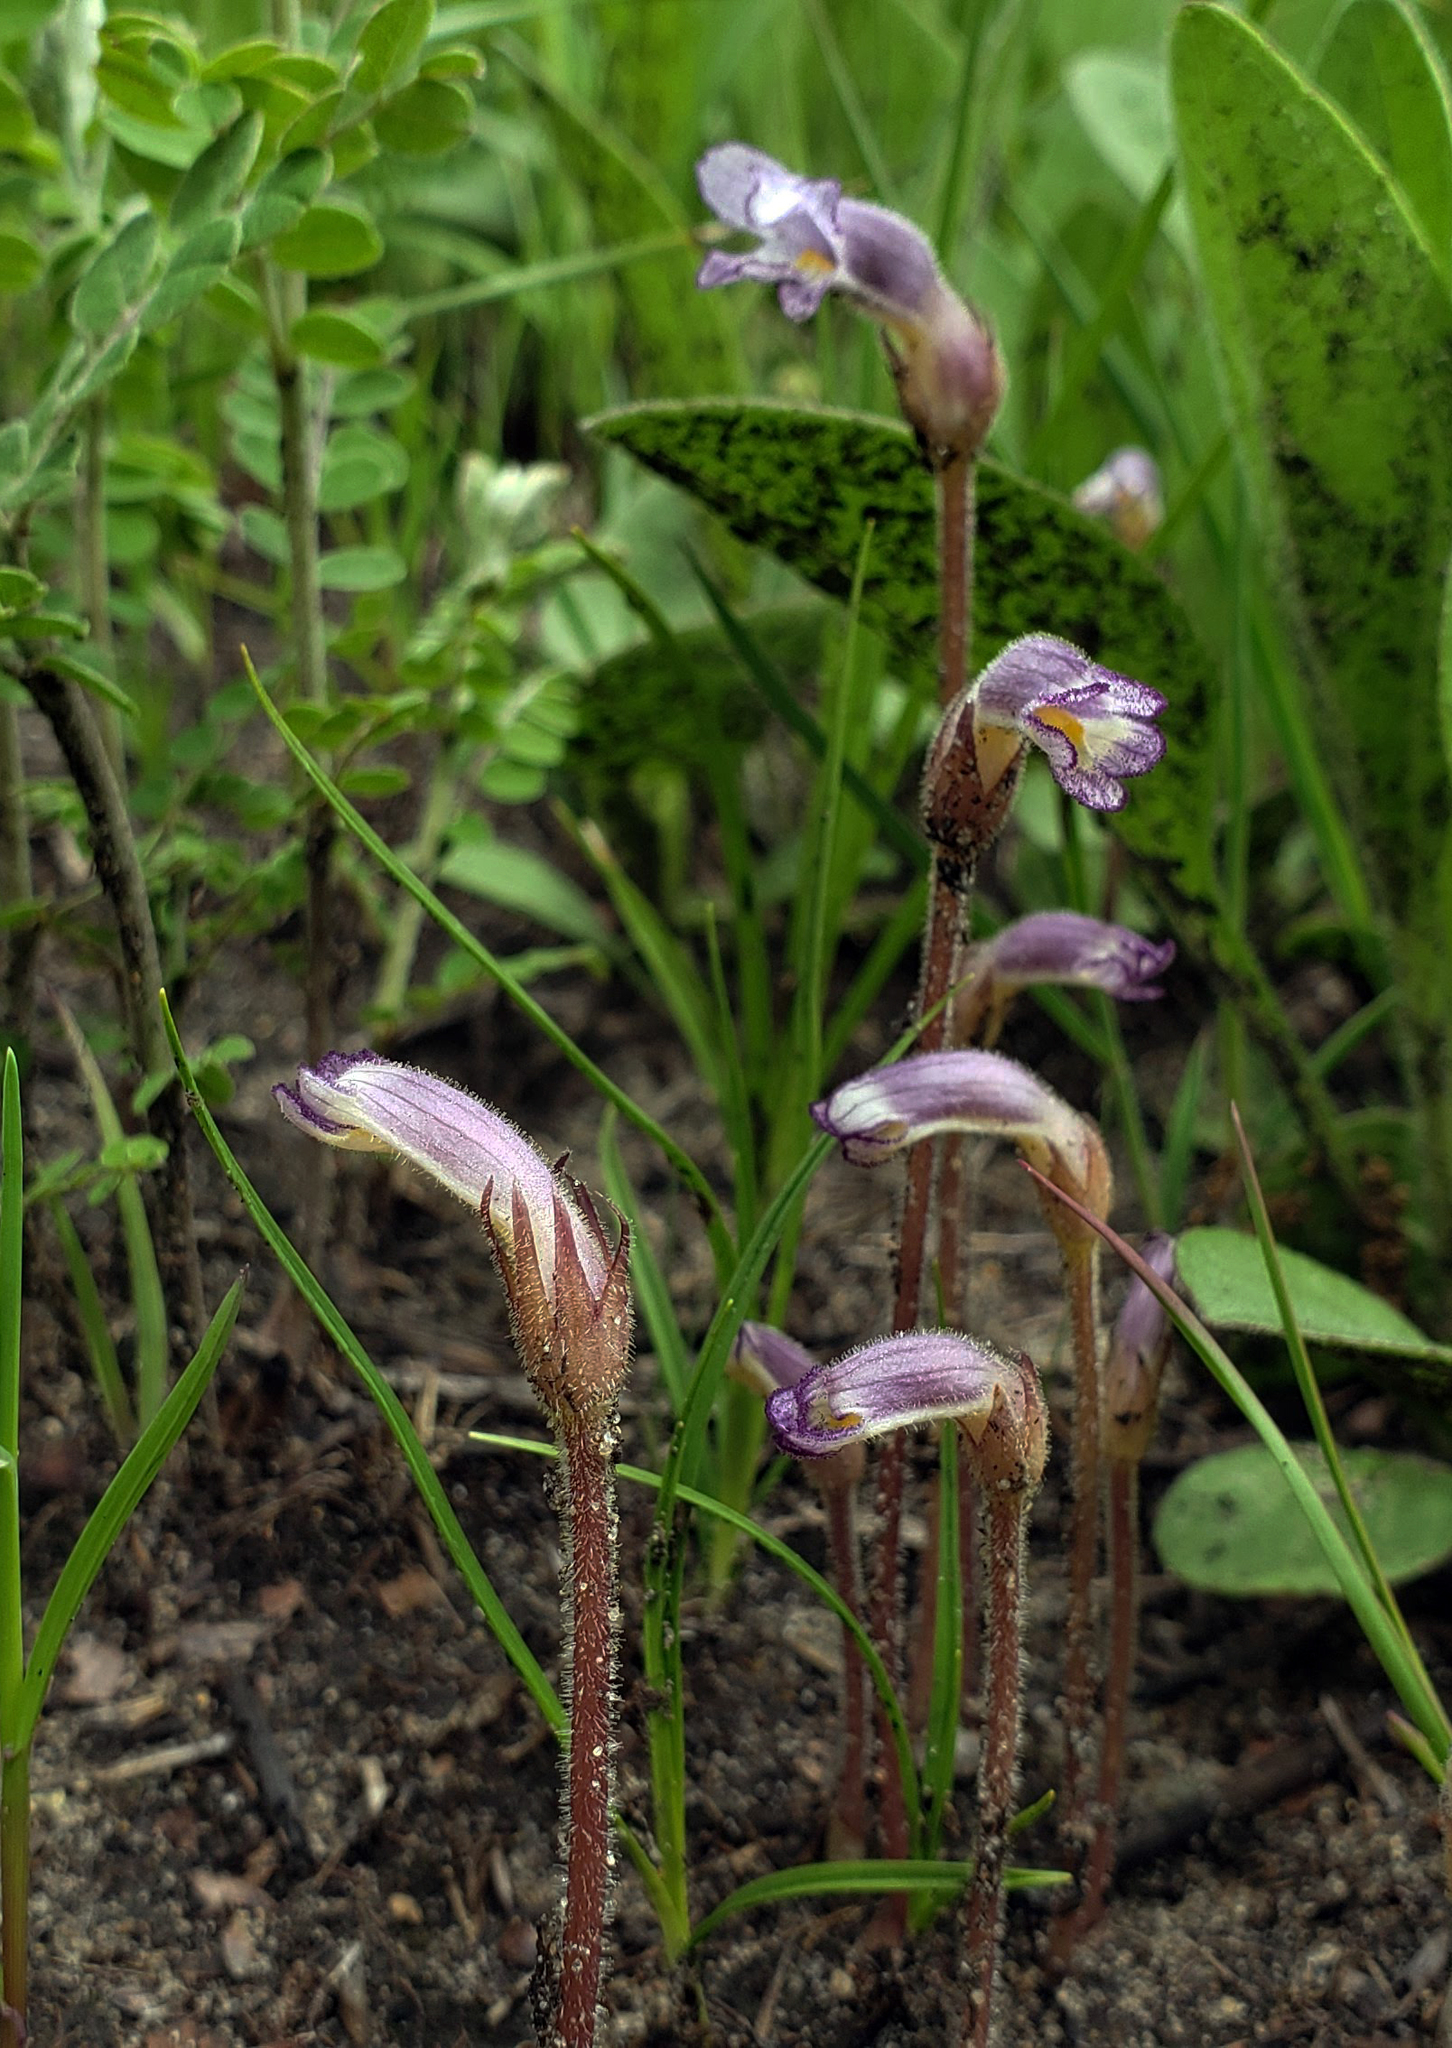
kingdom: Plantae
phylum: Tracheophyta
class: Magnoliopsida
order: Lamiales
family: Orobanchaceae
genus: Aphyllon
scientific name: Aphyllon uniflorum
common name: One-flowered broomrape
